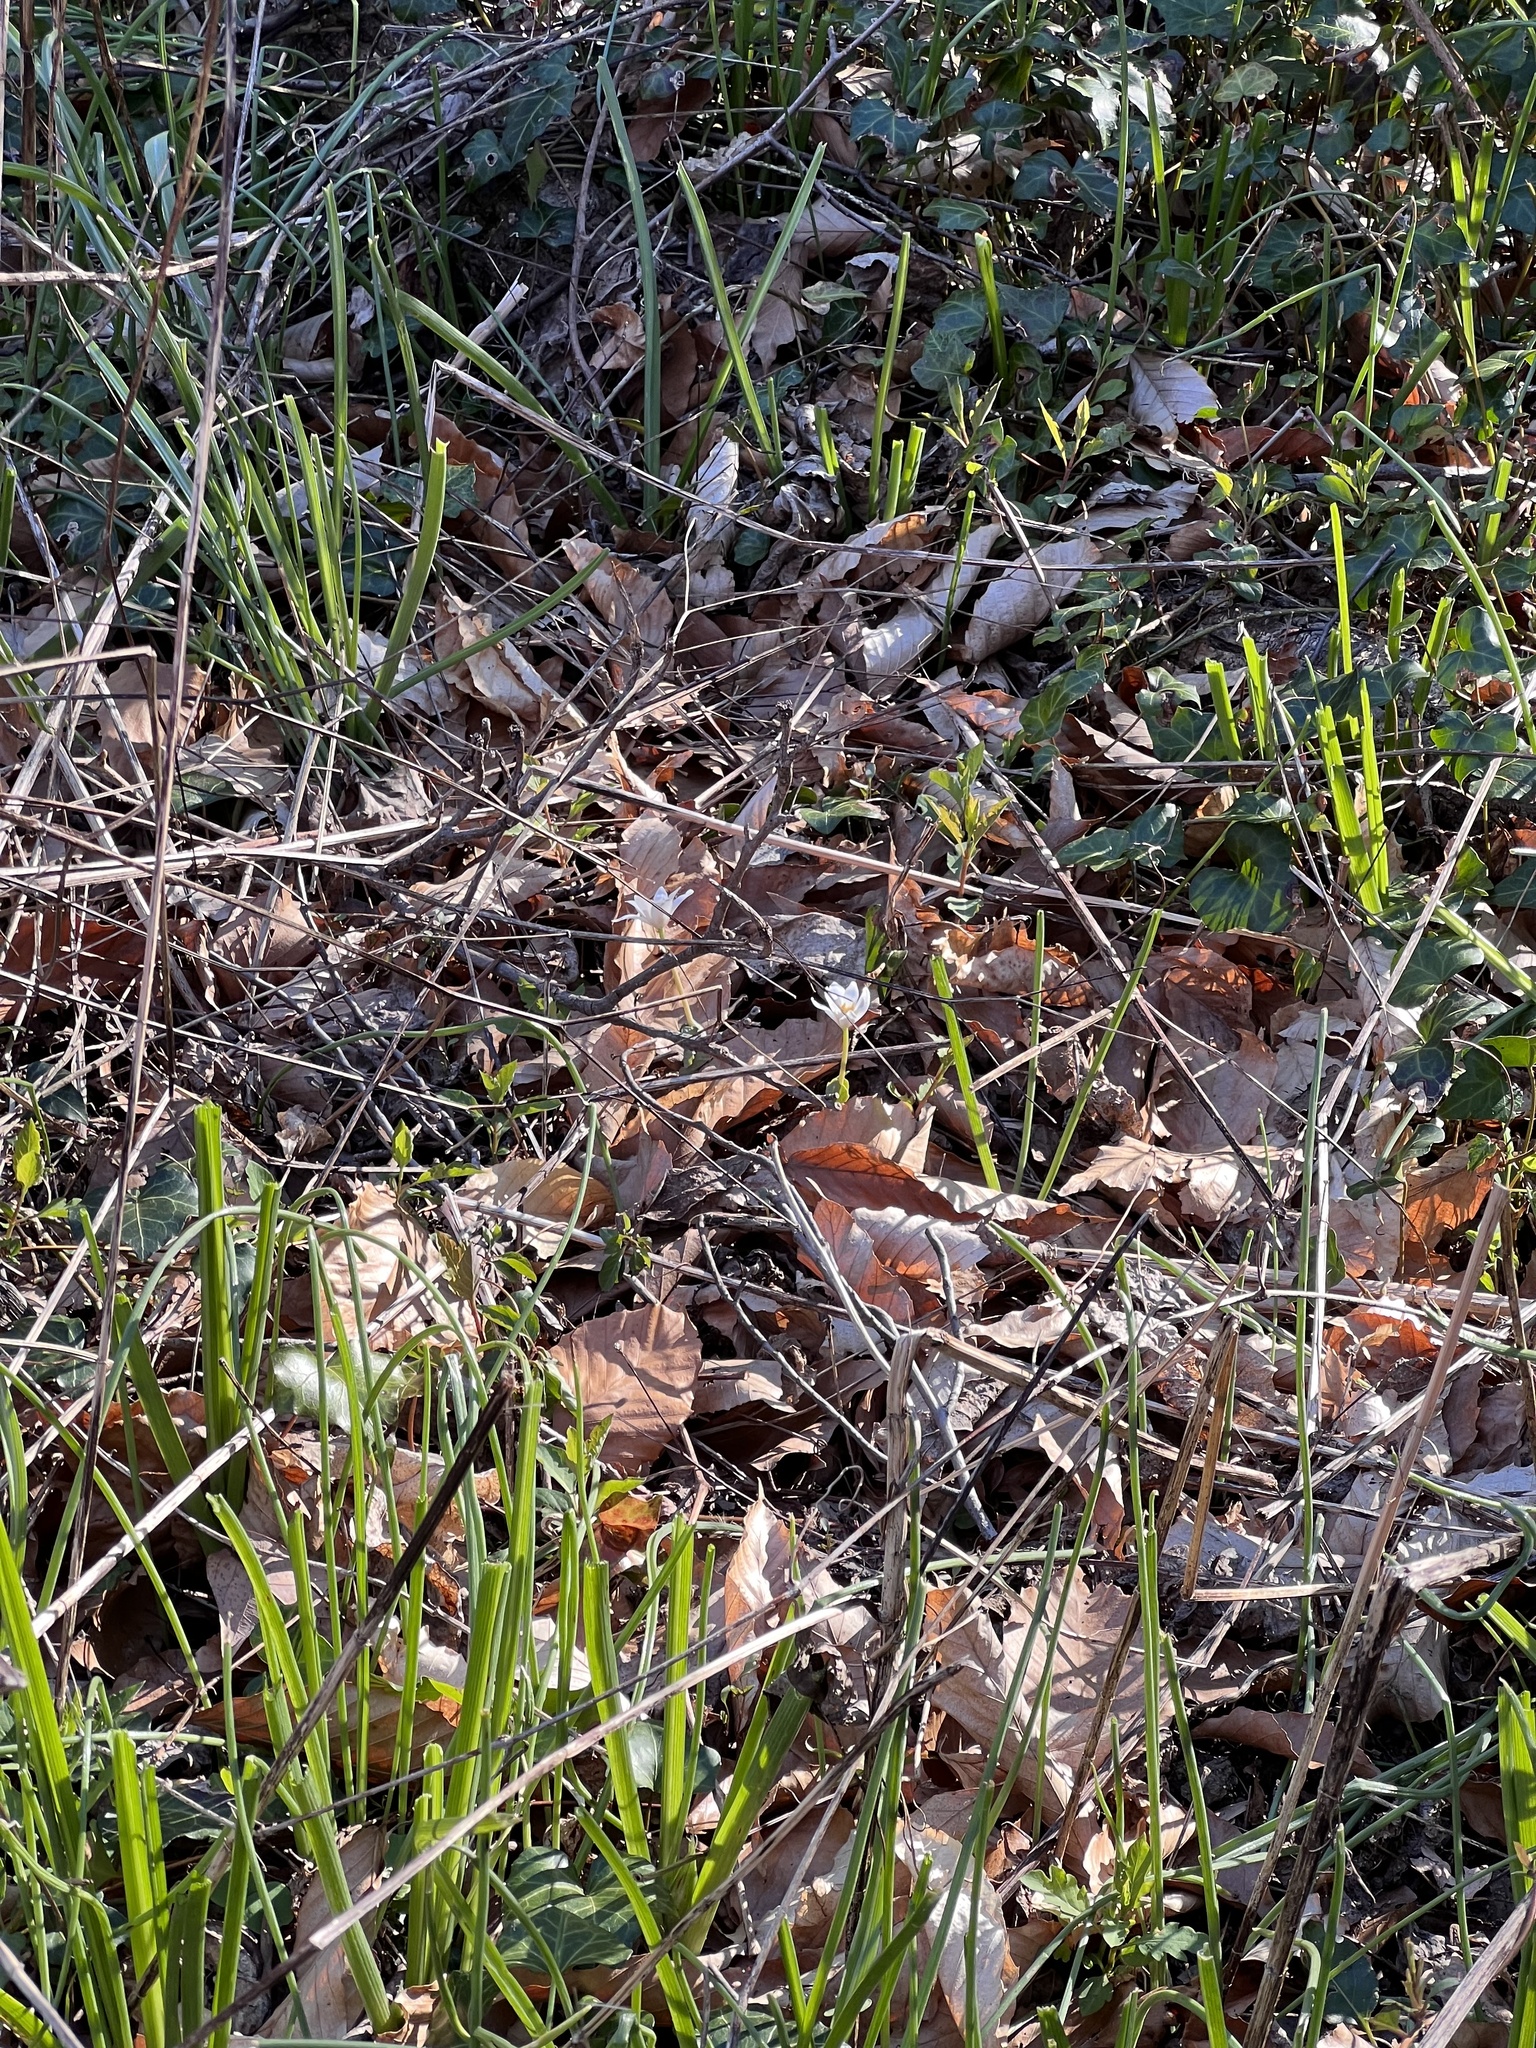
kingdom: Plantae
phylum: Tracheophyta
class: Magnoliopsida
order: Ranunculales
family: Papaveraceae
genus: Sanguinaria
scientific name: Sanguinaria canadensis
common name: Bloodroot
